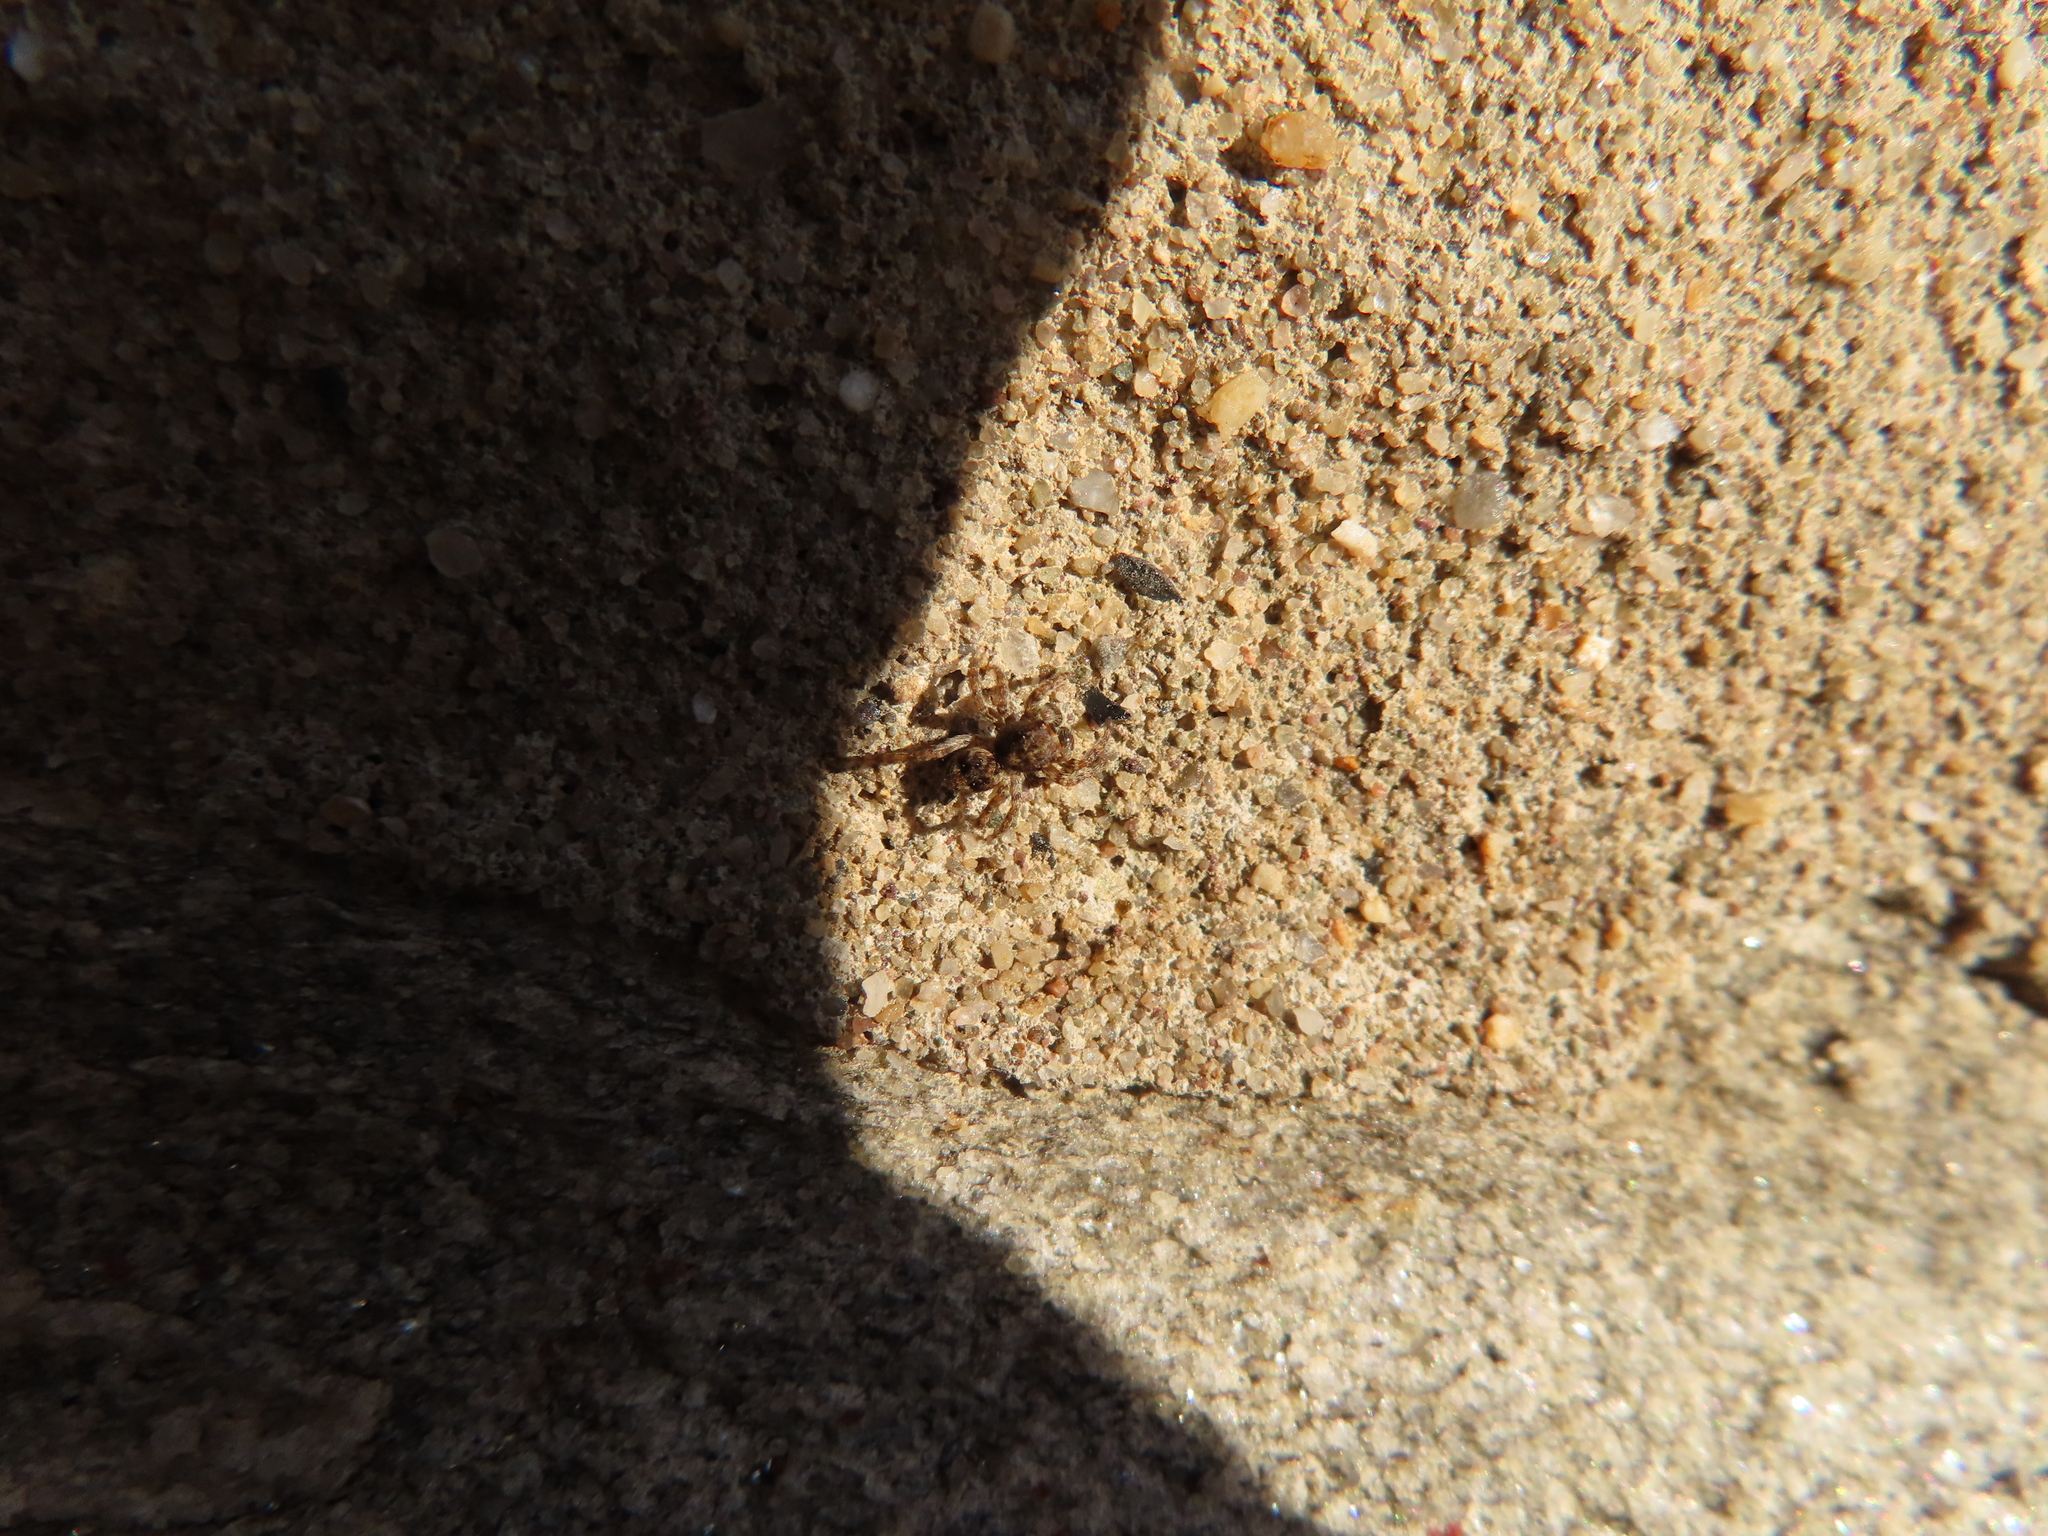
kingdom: Animalia
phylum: Arthropoda
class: Arachnida
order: Araneae
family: Salticidae
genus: Attulus
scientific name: Attulus fasciger
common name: Asiatic wall jumping spider
